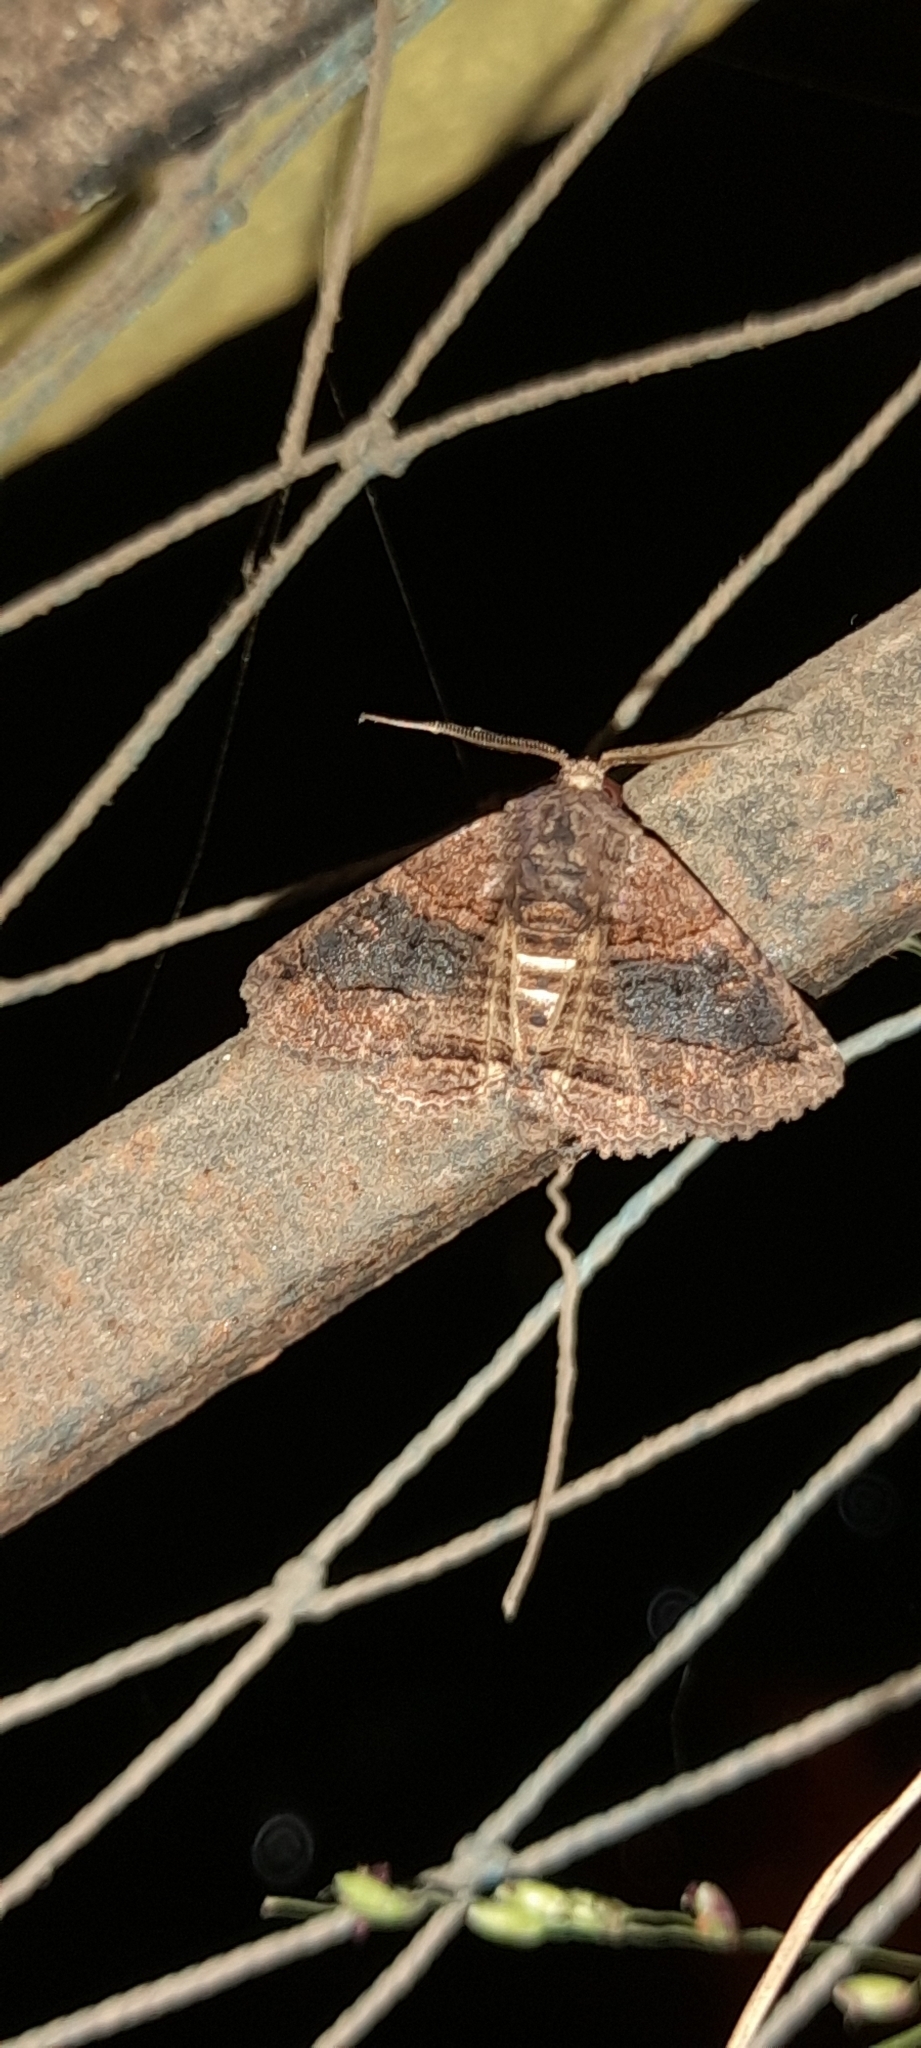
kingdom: Animalia
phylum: Arthropoda
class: Insecta
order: Lepidoptera
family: Erebidae
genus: Pericyma
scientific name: Pericyma cruegeri
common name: Poinciana looper
